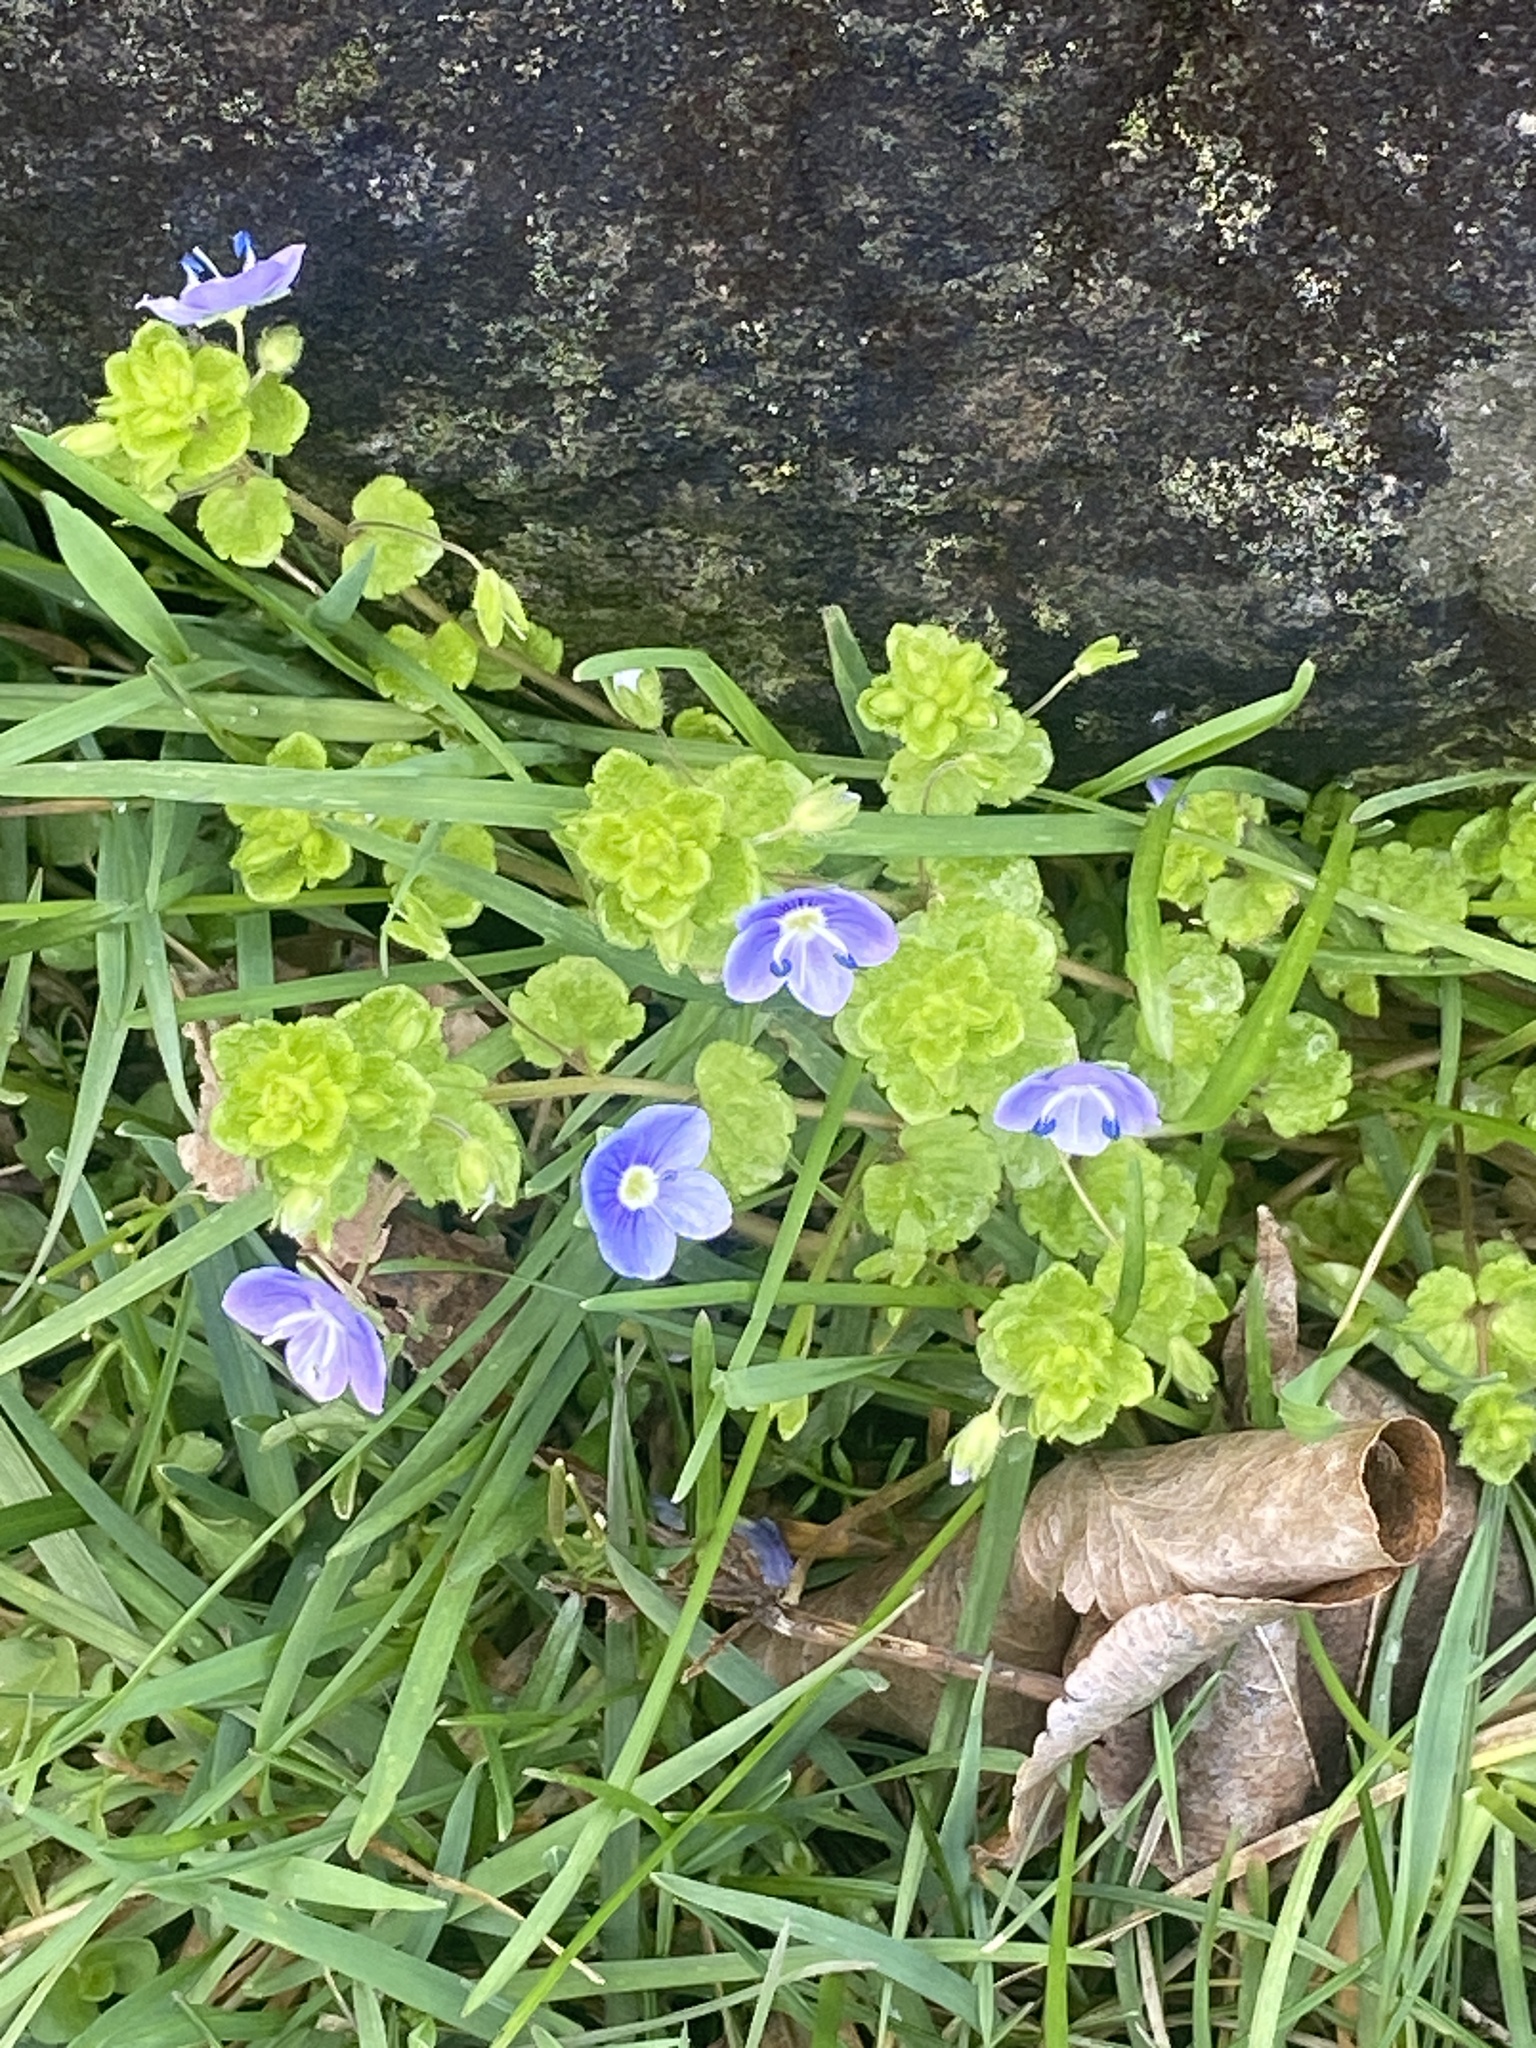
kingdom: Plantae
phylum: Tracheophyta
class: Magnoliopsida
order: Lamiales
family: Plantaginaceae
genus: Veronica
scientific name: Veronica filiformis
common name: Slender speedwell
